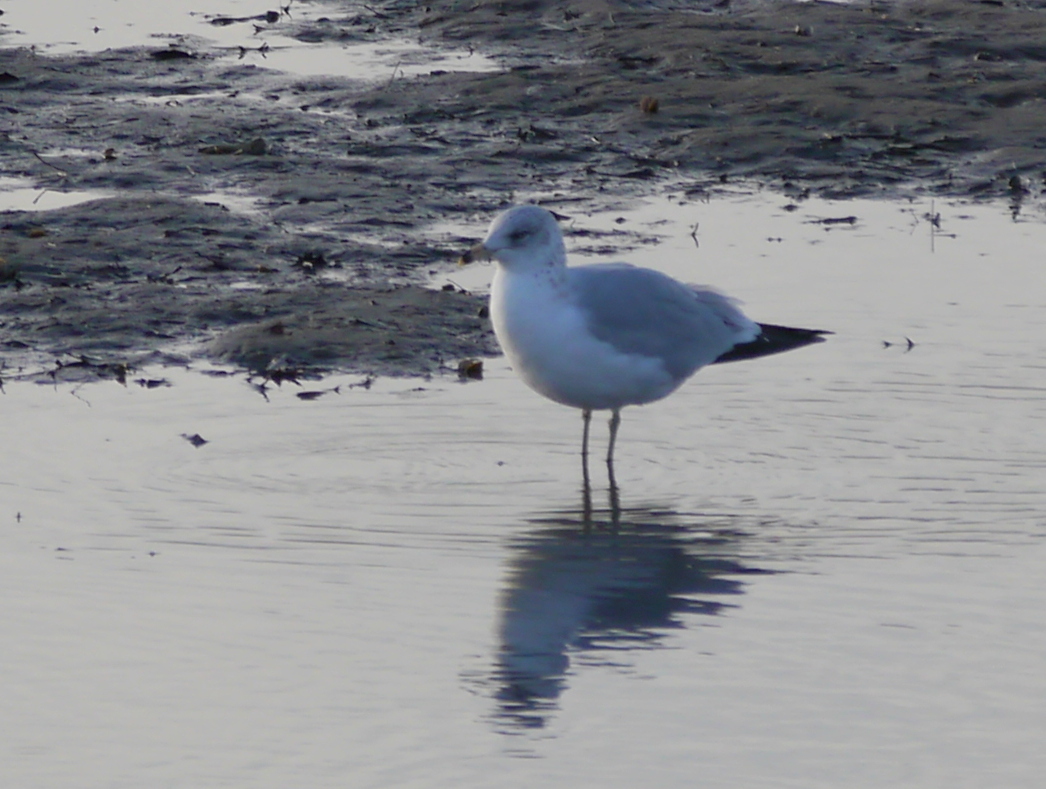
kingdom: Animalia
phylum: Chordata
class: Aves
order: Charadriiformes
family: Laridae
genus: Larus
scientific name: Larus delawarensis
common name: Ring-billed gull
